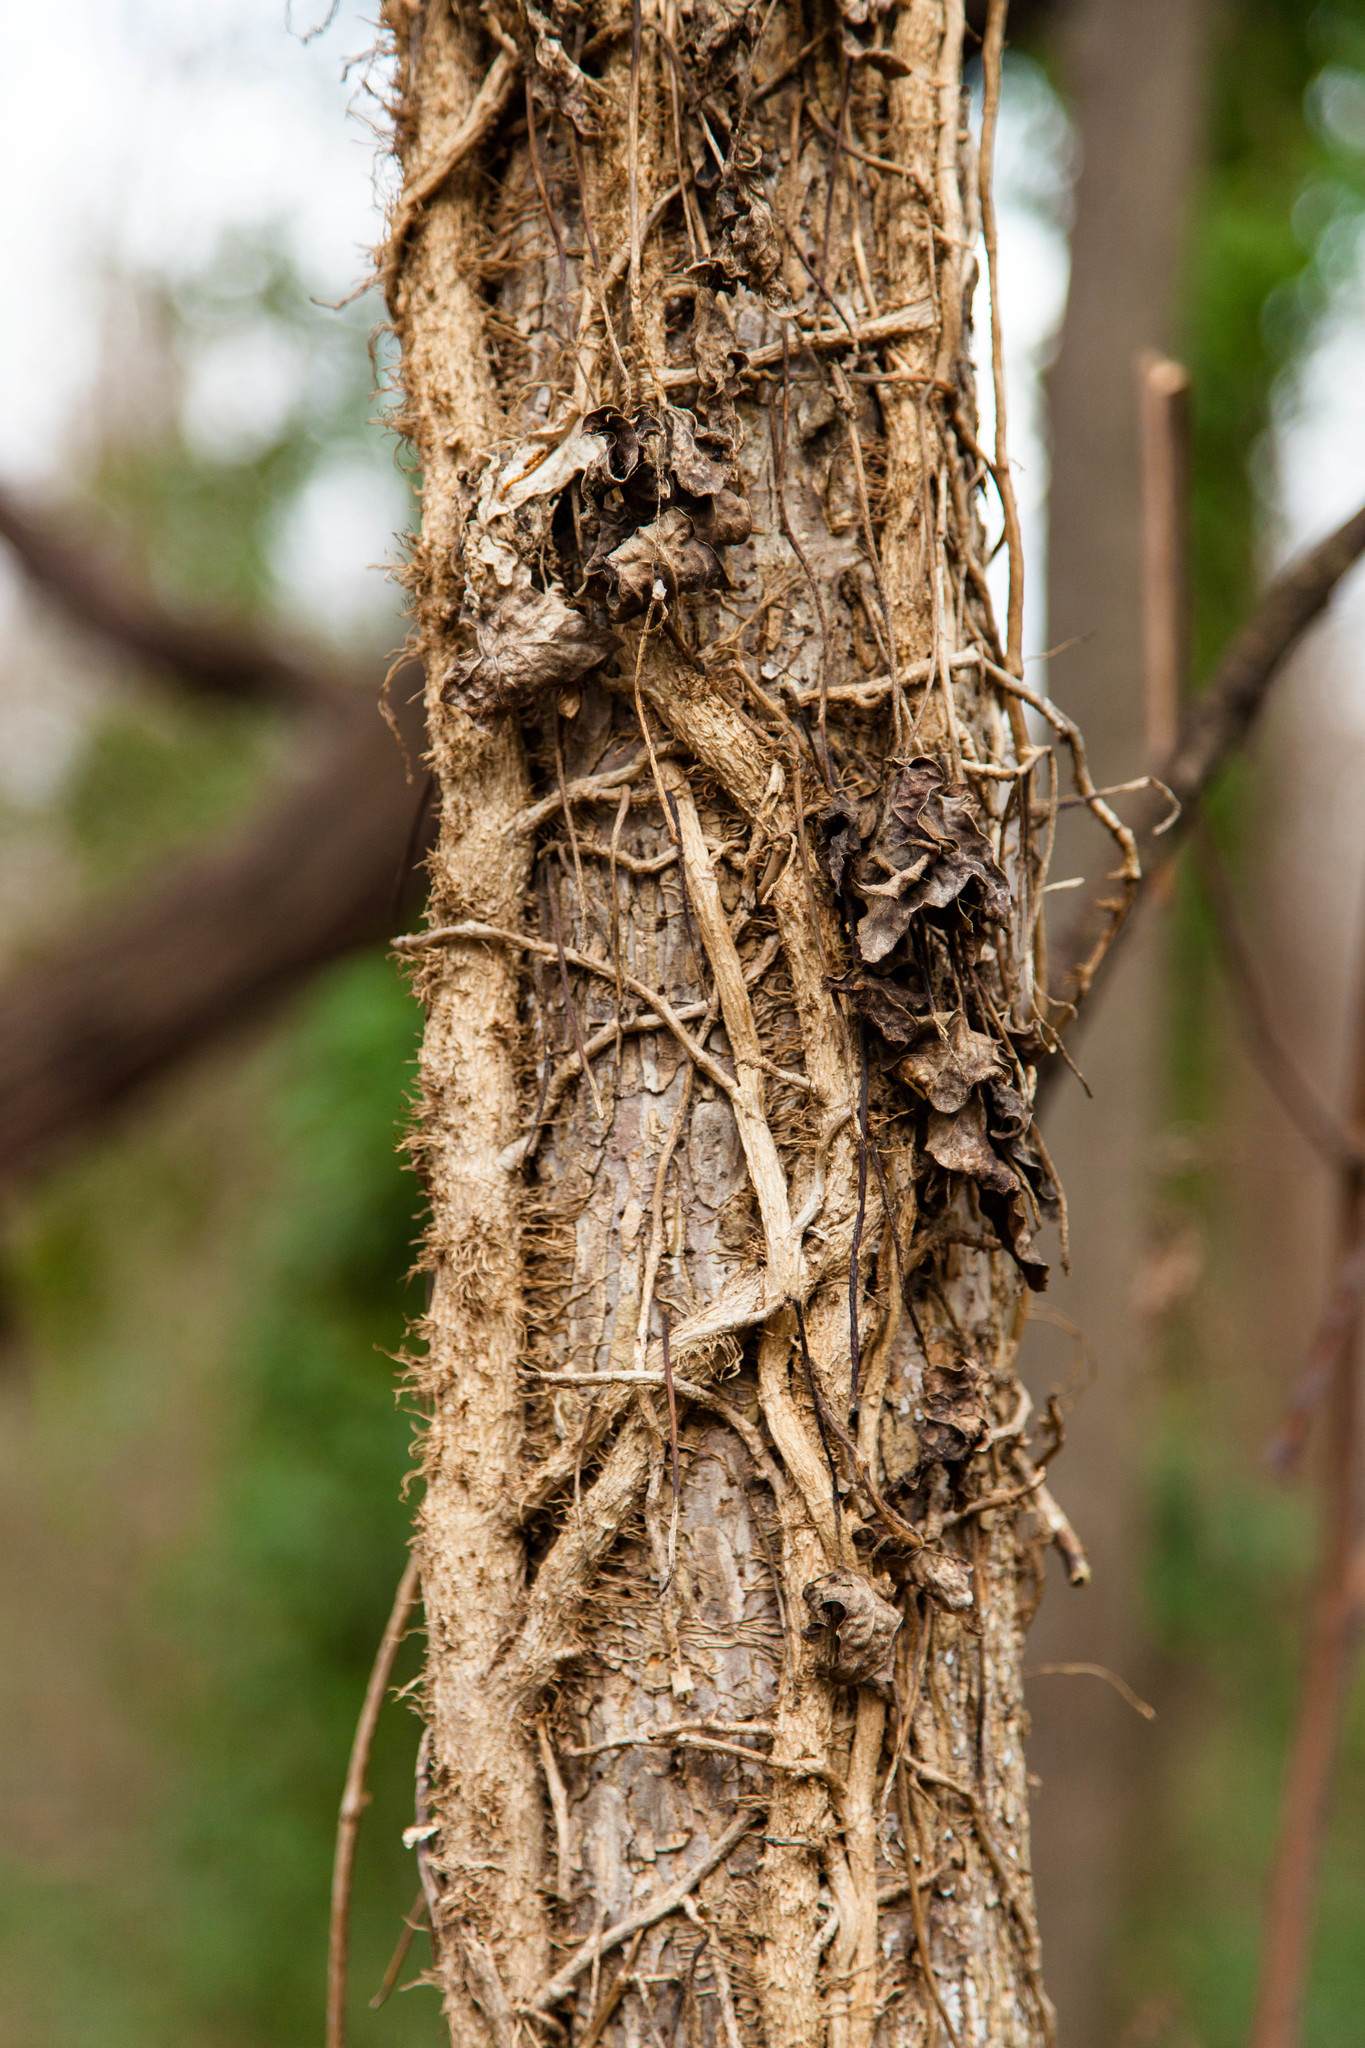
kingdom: Plantae
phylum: Tracheophyta
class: Magnoliopsida
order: Sapindales
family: Anacardiaceae
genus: Toxicodendron
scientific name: Toxicodendron radicans
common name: Poison ivy
